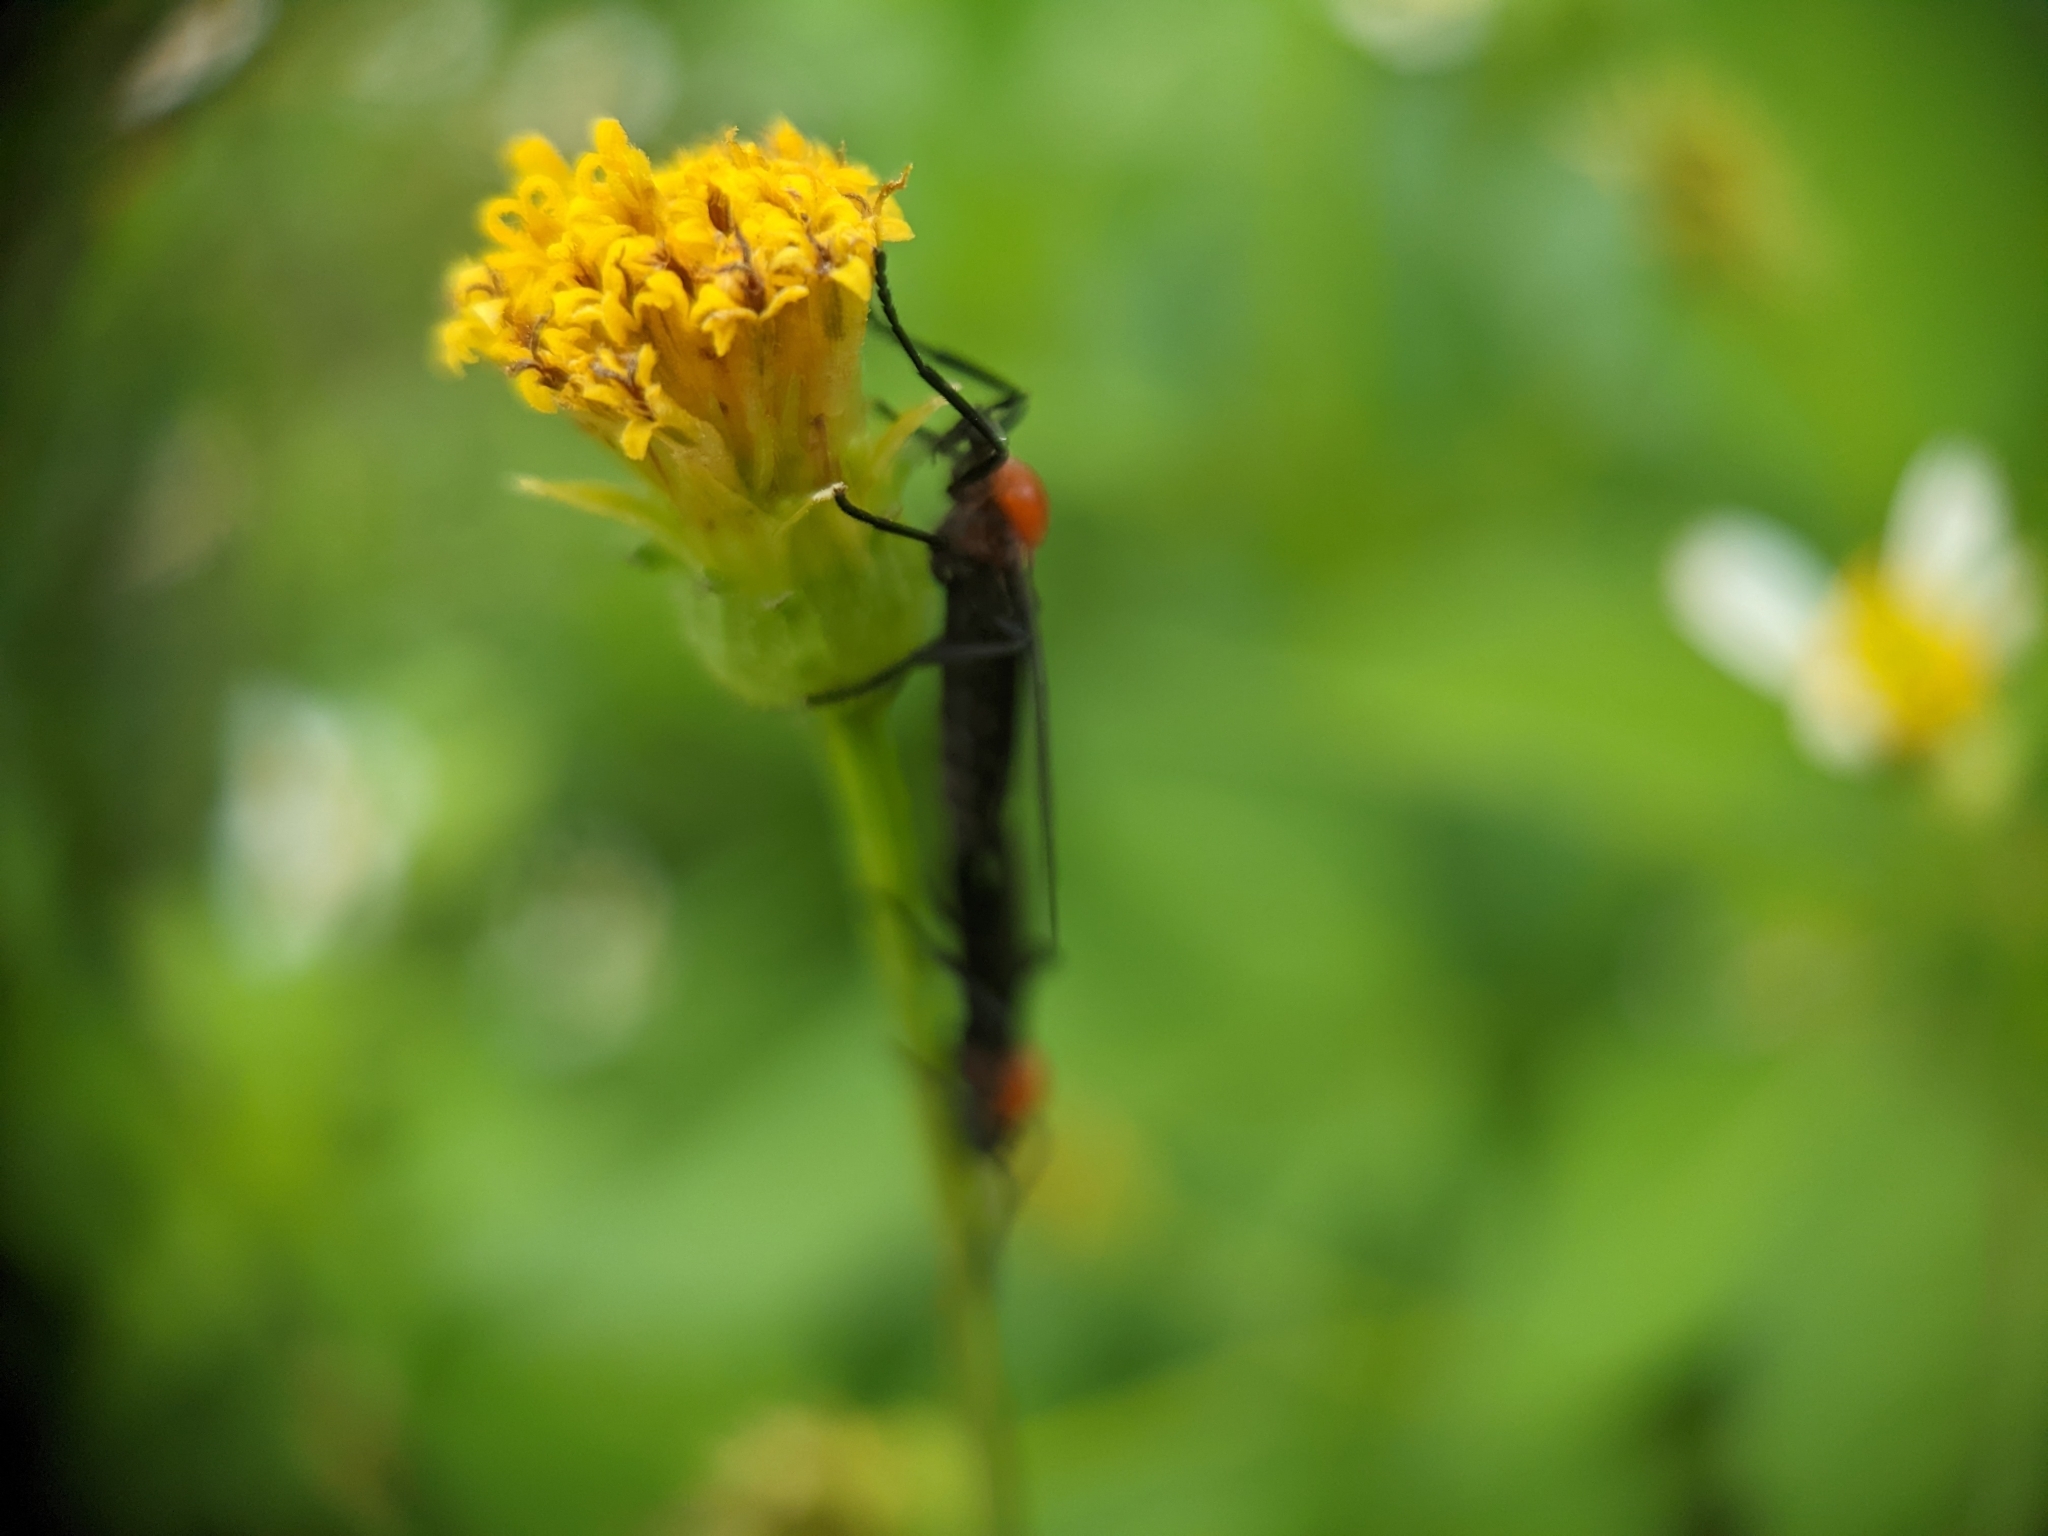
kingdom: Animalia
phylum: Arthropoda
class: Insecta
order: Diptera
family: Bibionidae
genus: Plecia
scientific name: Plecia nearctica
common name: March fly
